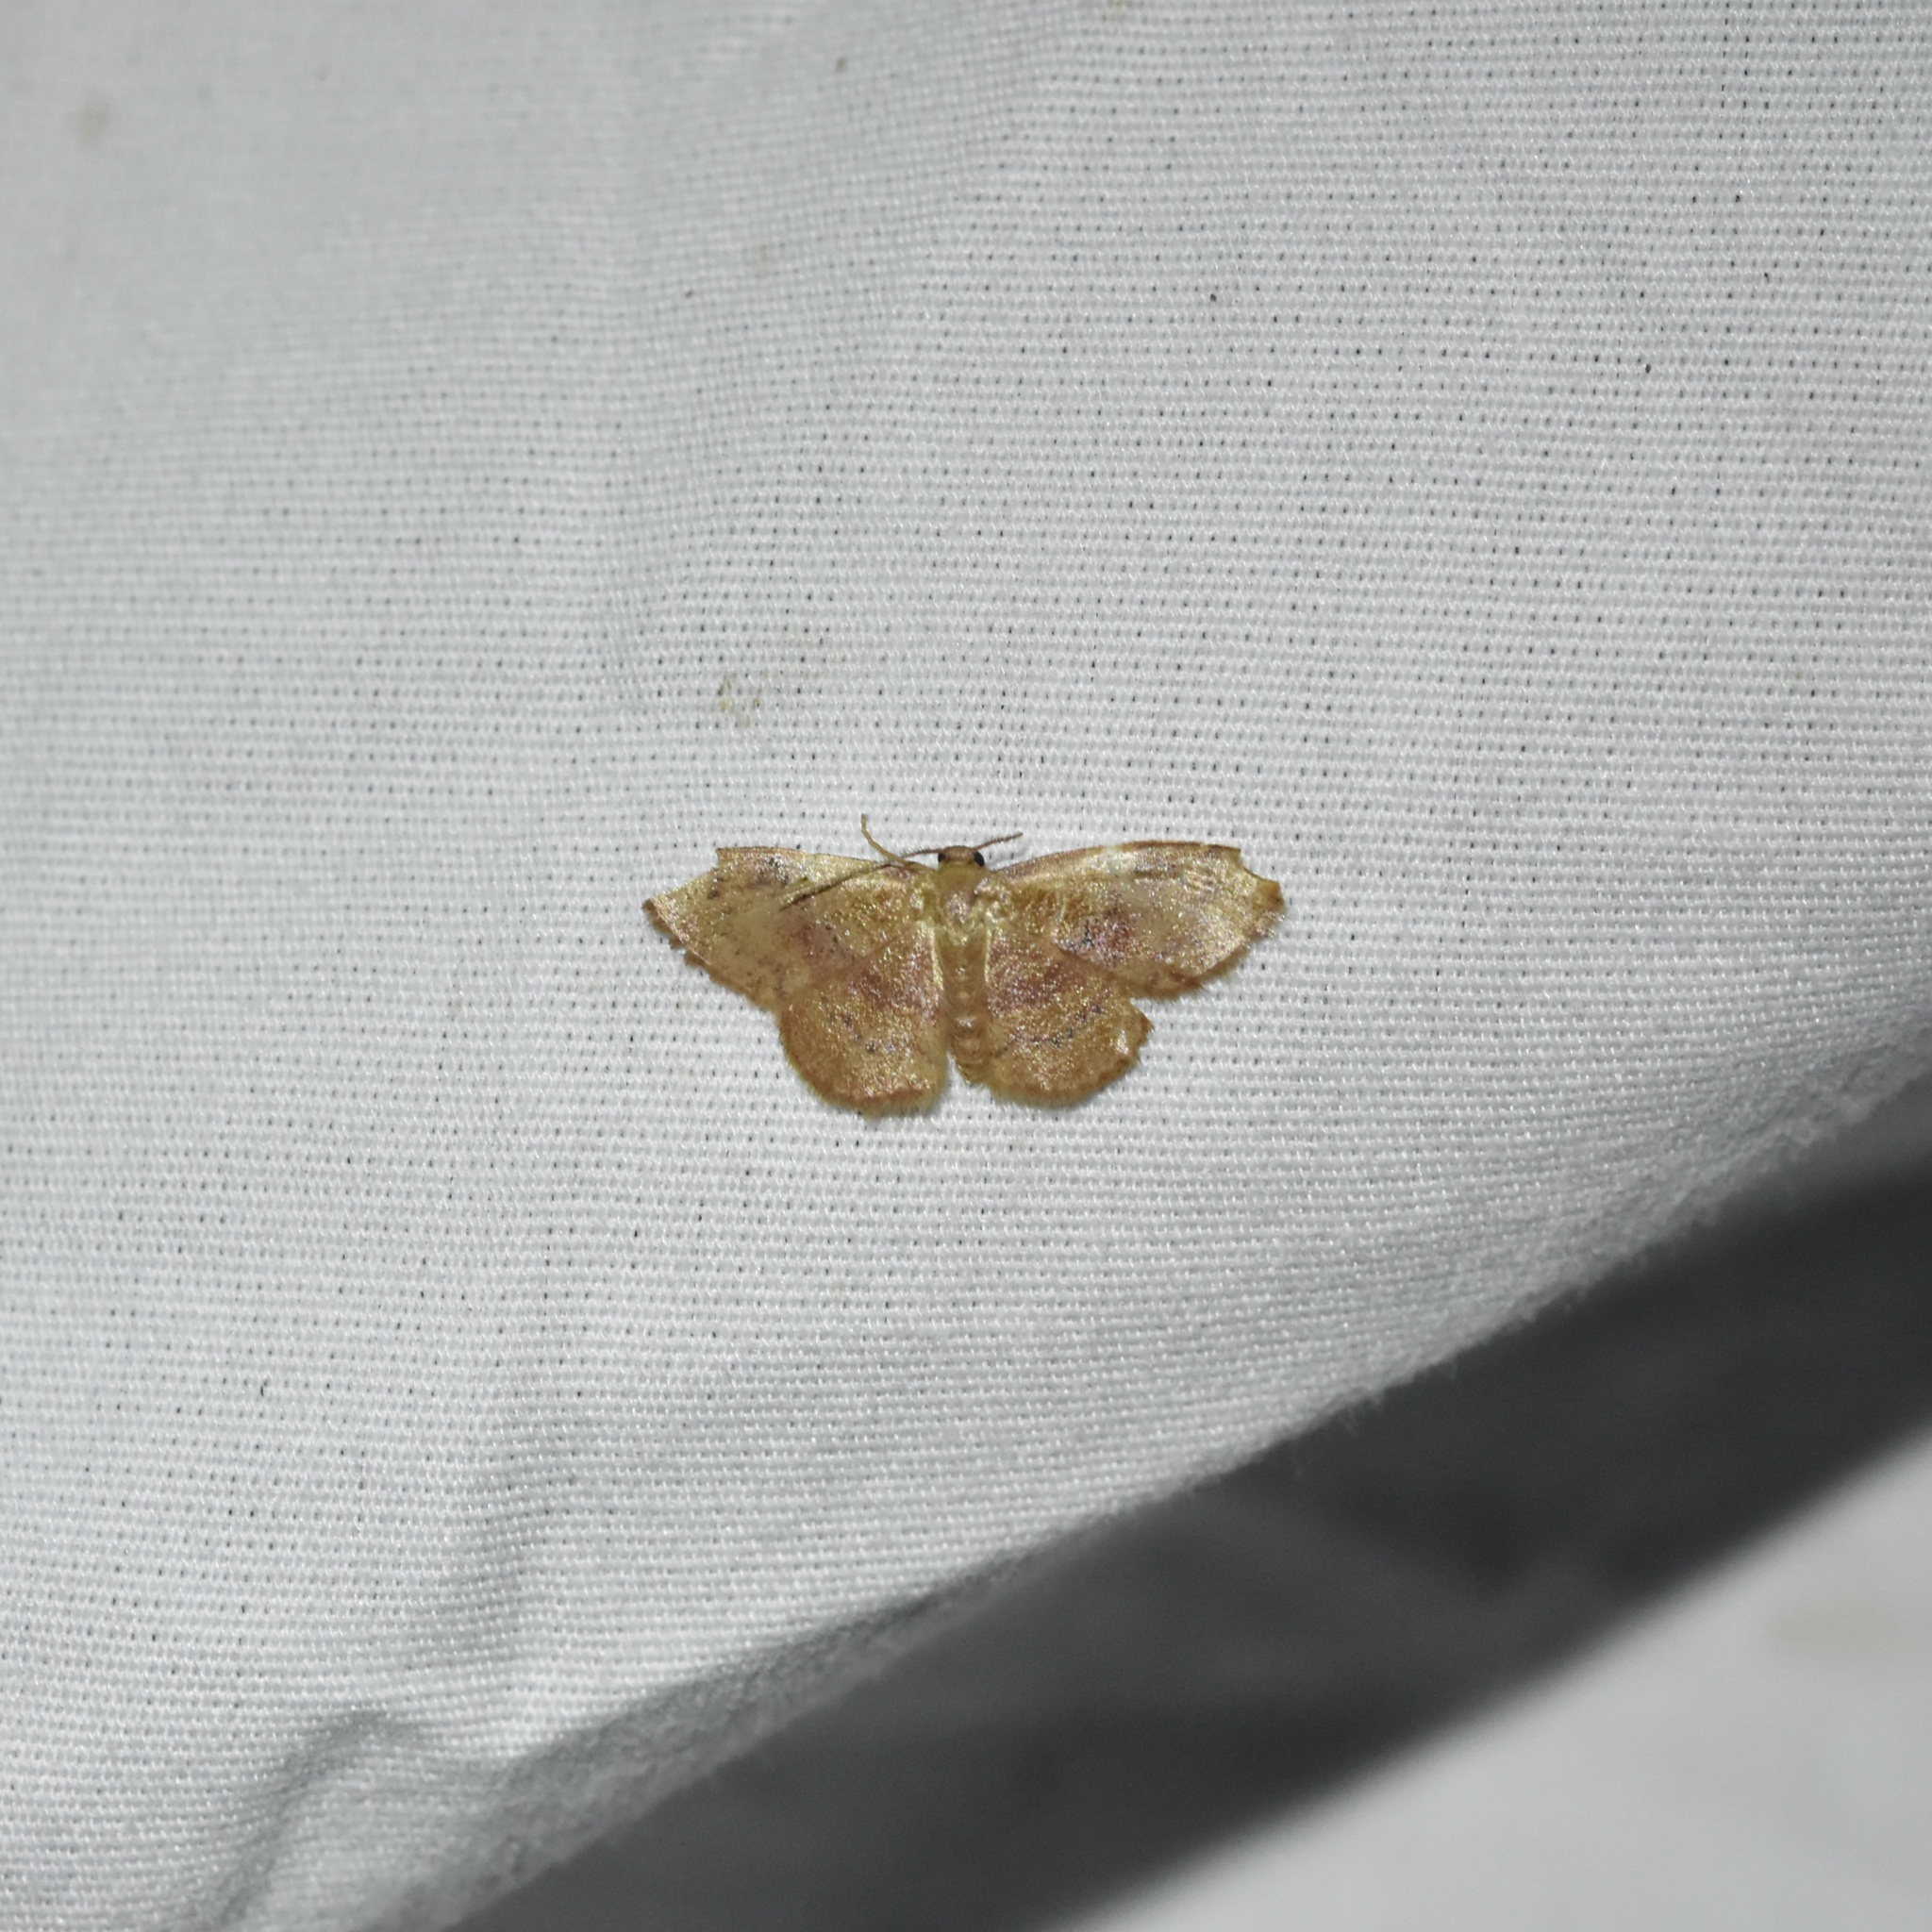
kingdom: Animalia
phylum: Arthropoda
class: Insecta
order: Lepidoptera
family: Geometridae
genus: Leptostales
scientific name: Leptostales ferruminaria
